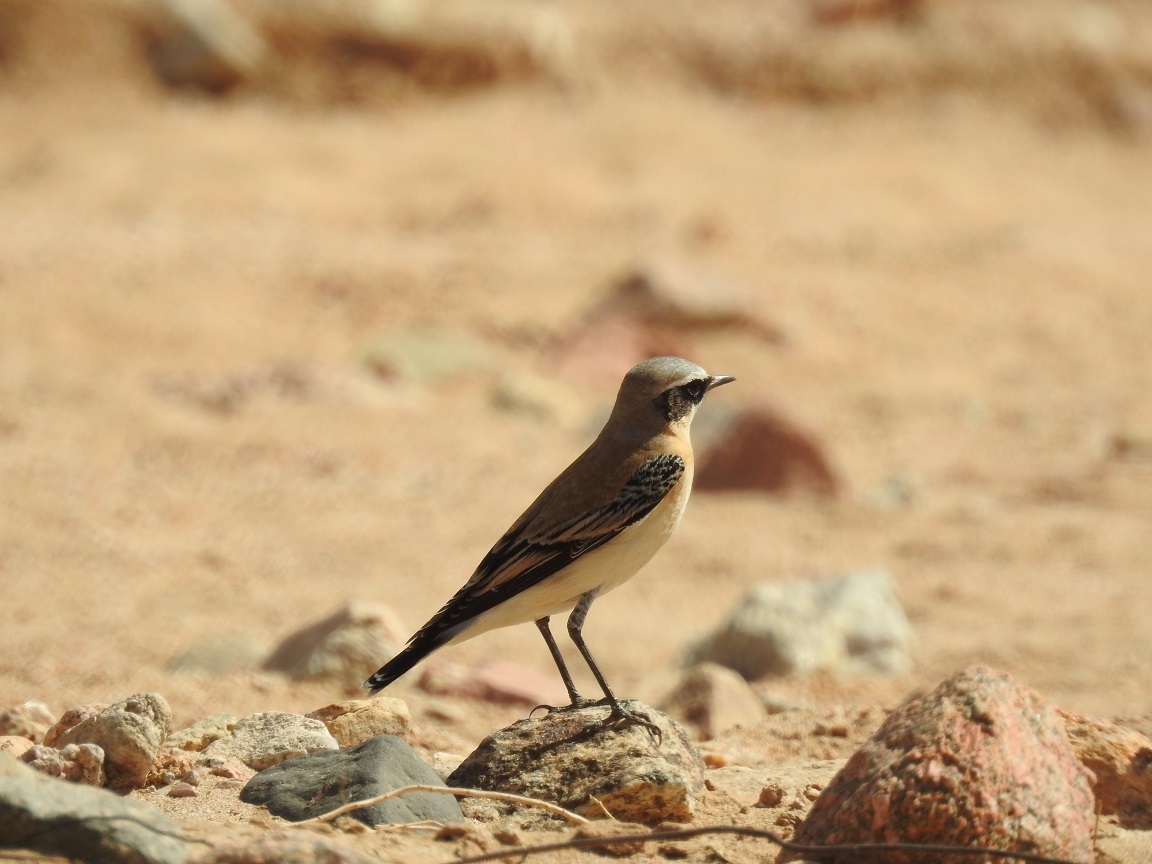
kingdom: Animalia
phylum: Chordata
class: Aves
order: Passeriformes
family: Muscicapidae
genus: Oenanthe
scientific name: Oenanthe oenanthe
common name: Northern wheatear
